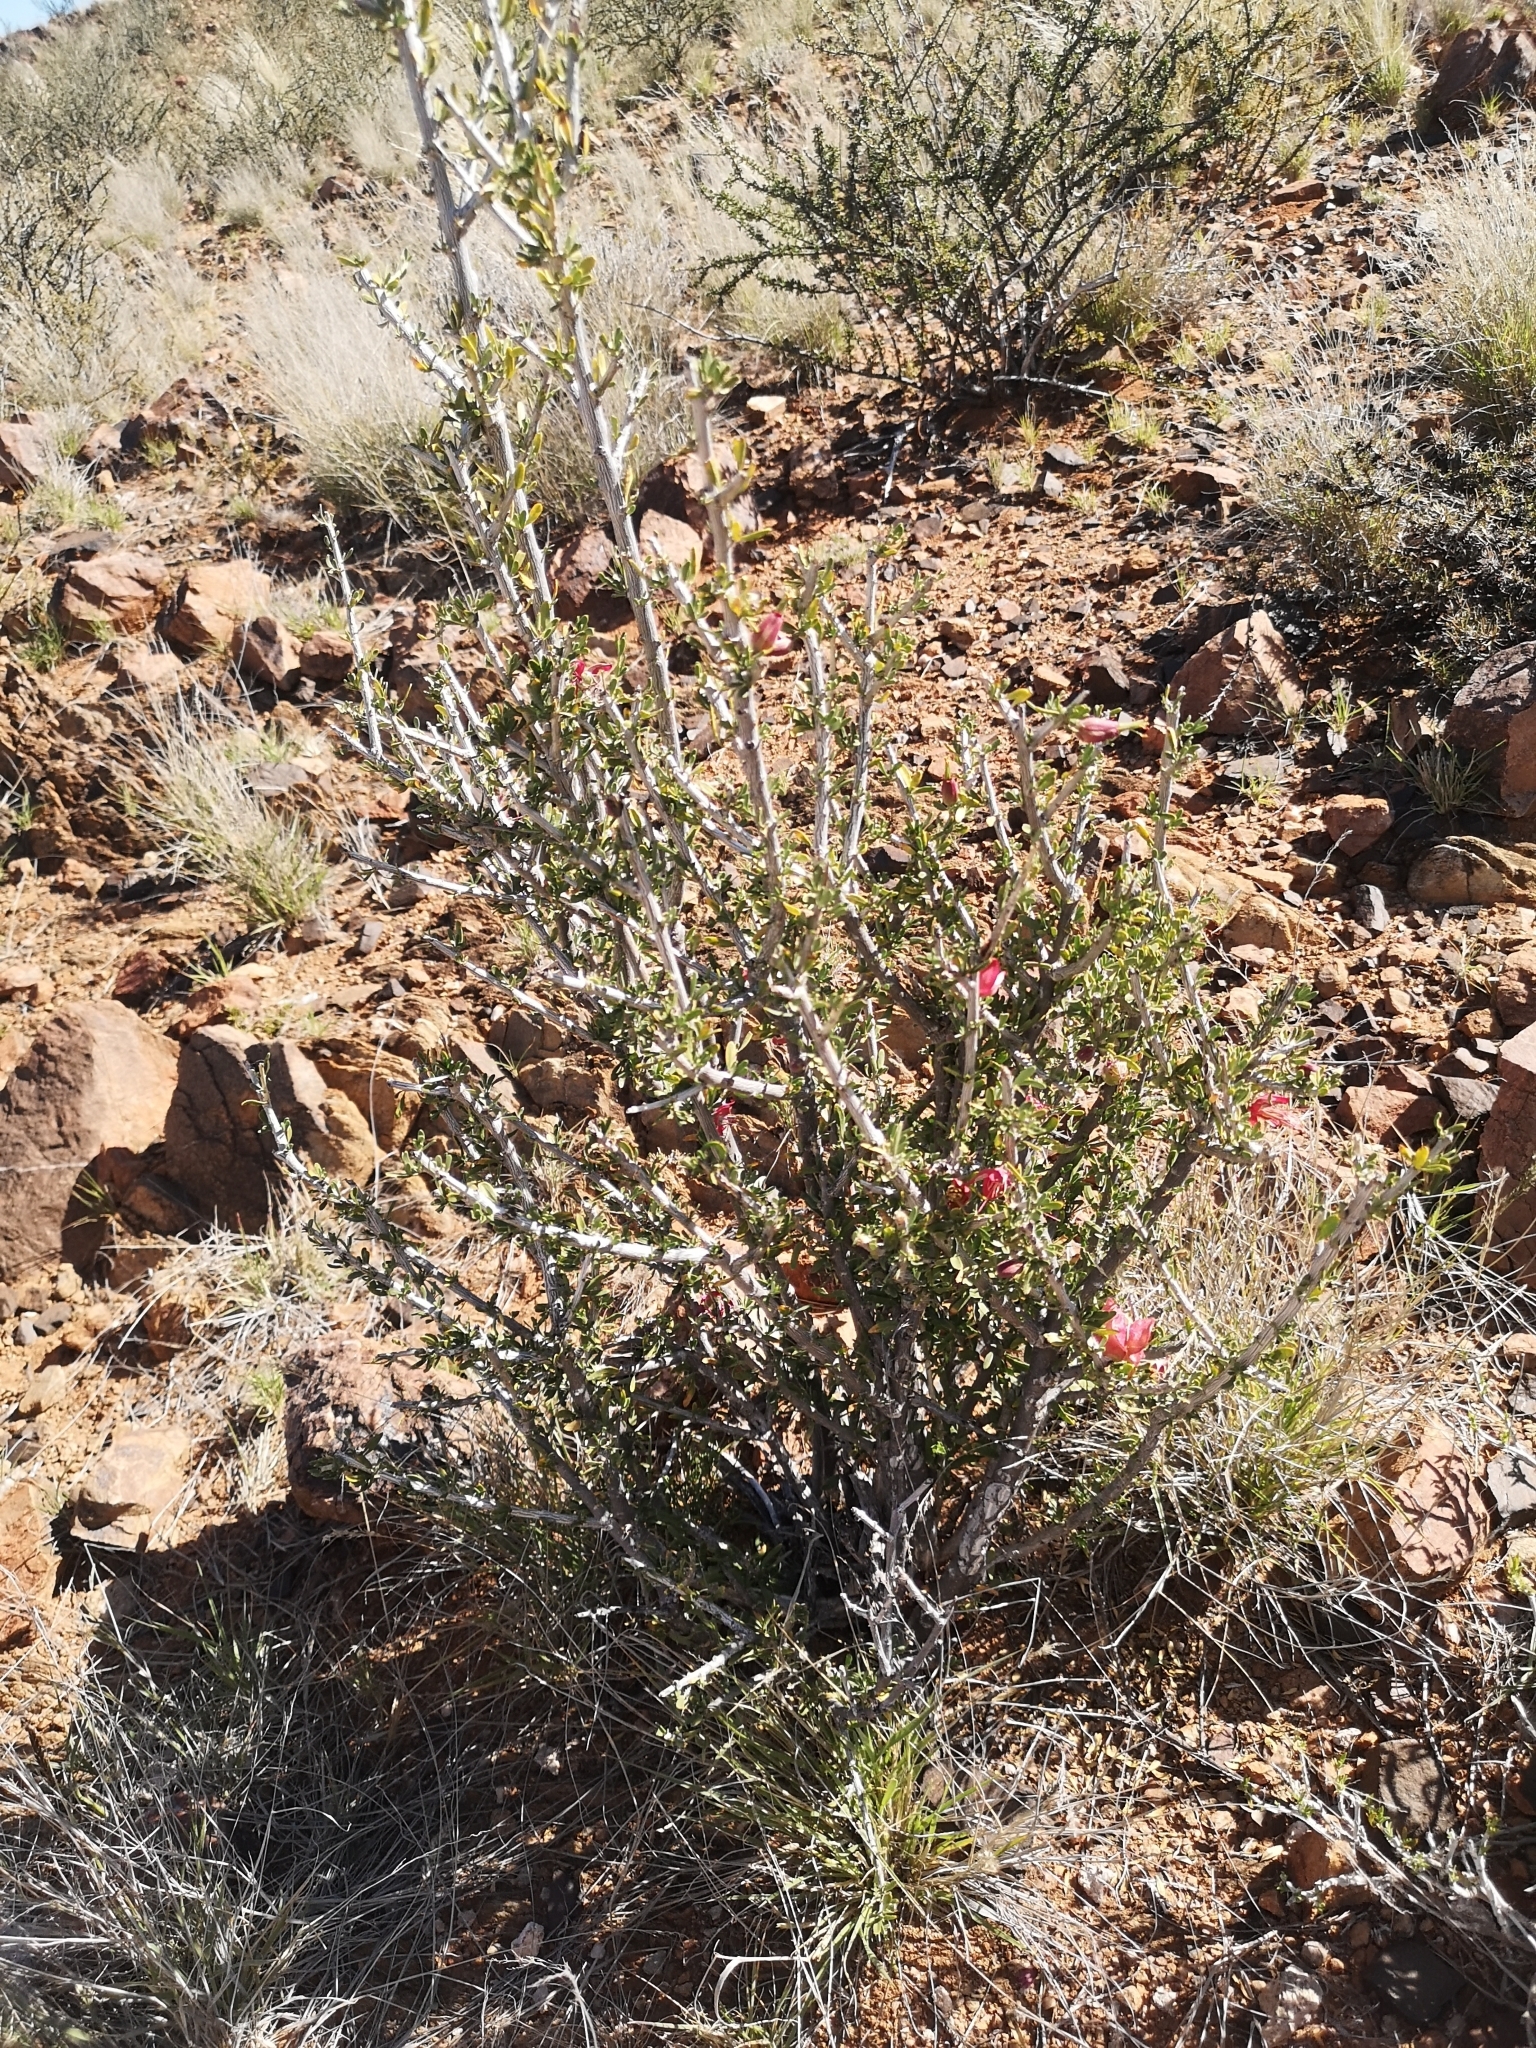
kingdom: Plantae
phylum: Tracheophyta
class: Magnoliopsida
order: Sapindales
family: Meliaceae
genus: Nymania
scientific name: Nymania capensis
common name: Chinese lantern tree
